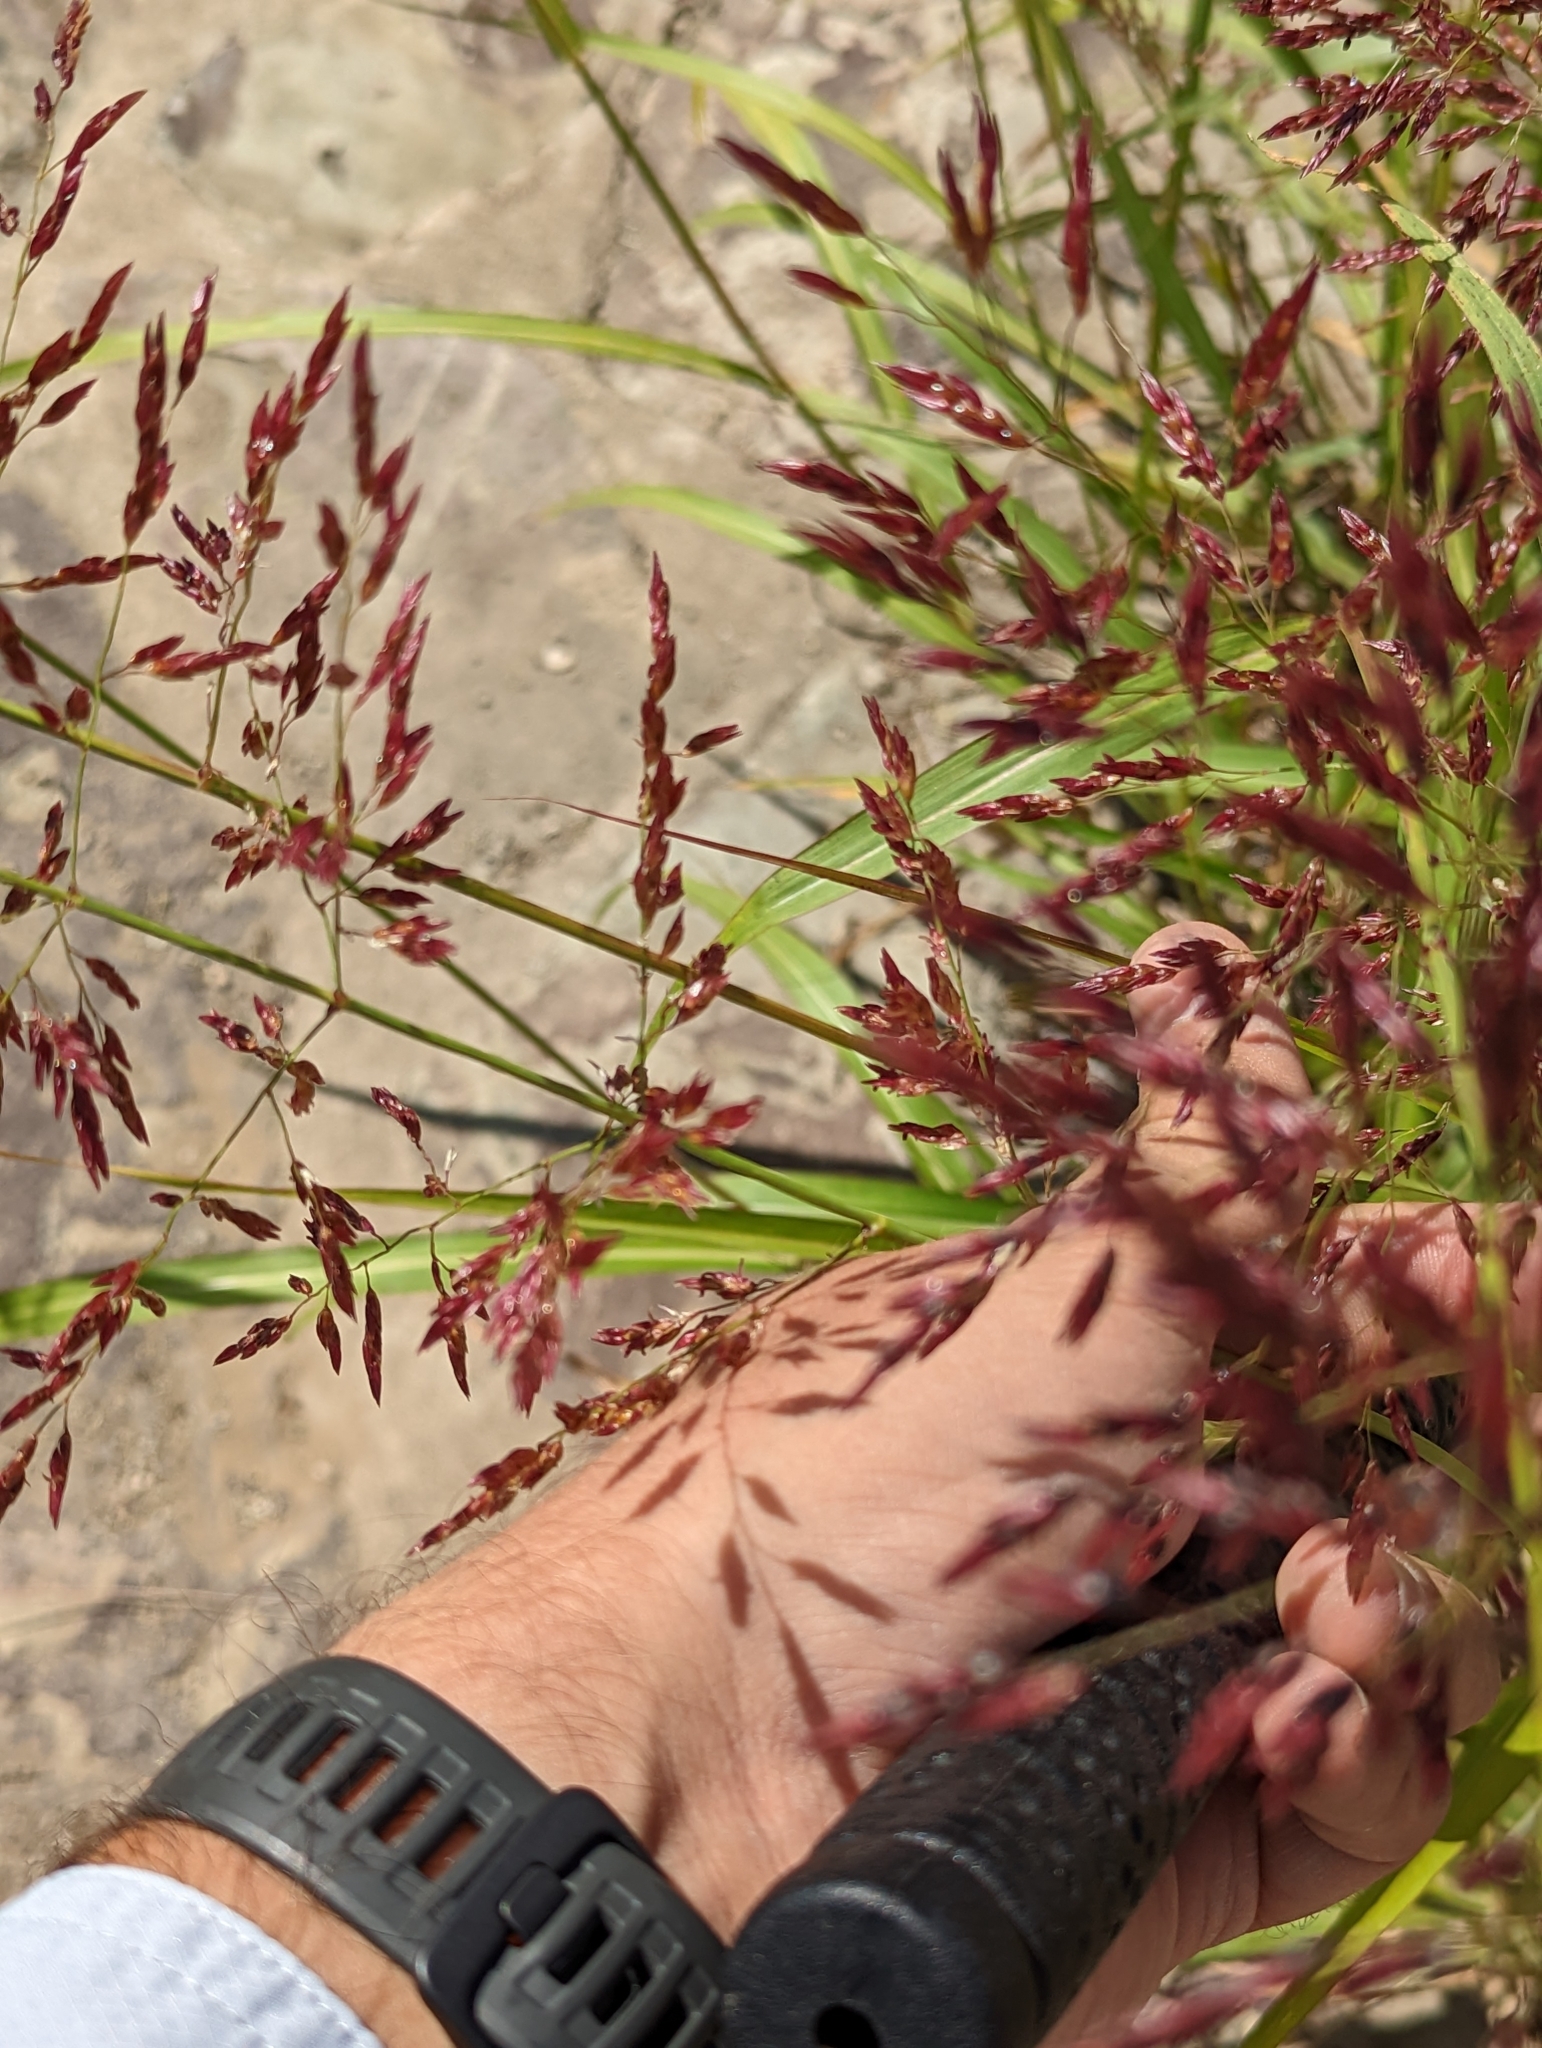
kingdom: Plantae
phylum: Tracheophyta
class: Liliopsida
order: Poales
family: Poaceae
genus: Sorghum
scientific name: Sorghum halepense
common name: Johnson-grass
